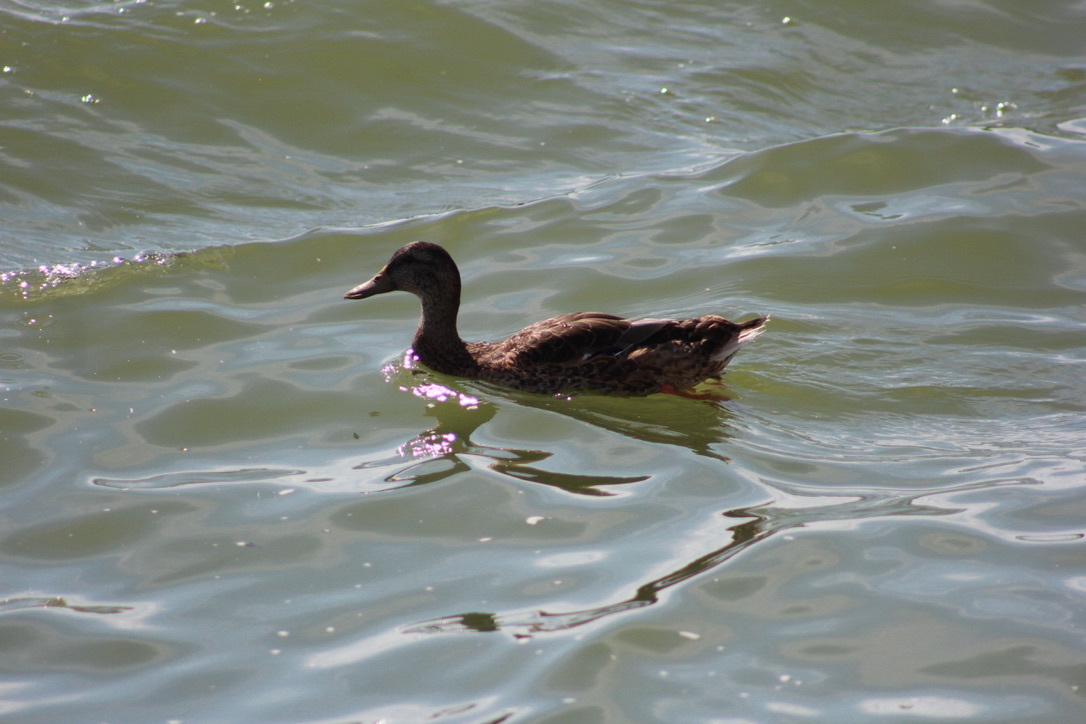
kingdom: Animalia
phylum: Chordata
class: Aves
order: Anseriformes
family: Anatidae
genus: Anas
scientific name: Anas platyrhynchos
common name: Mallard
